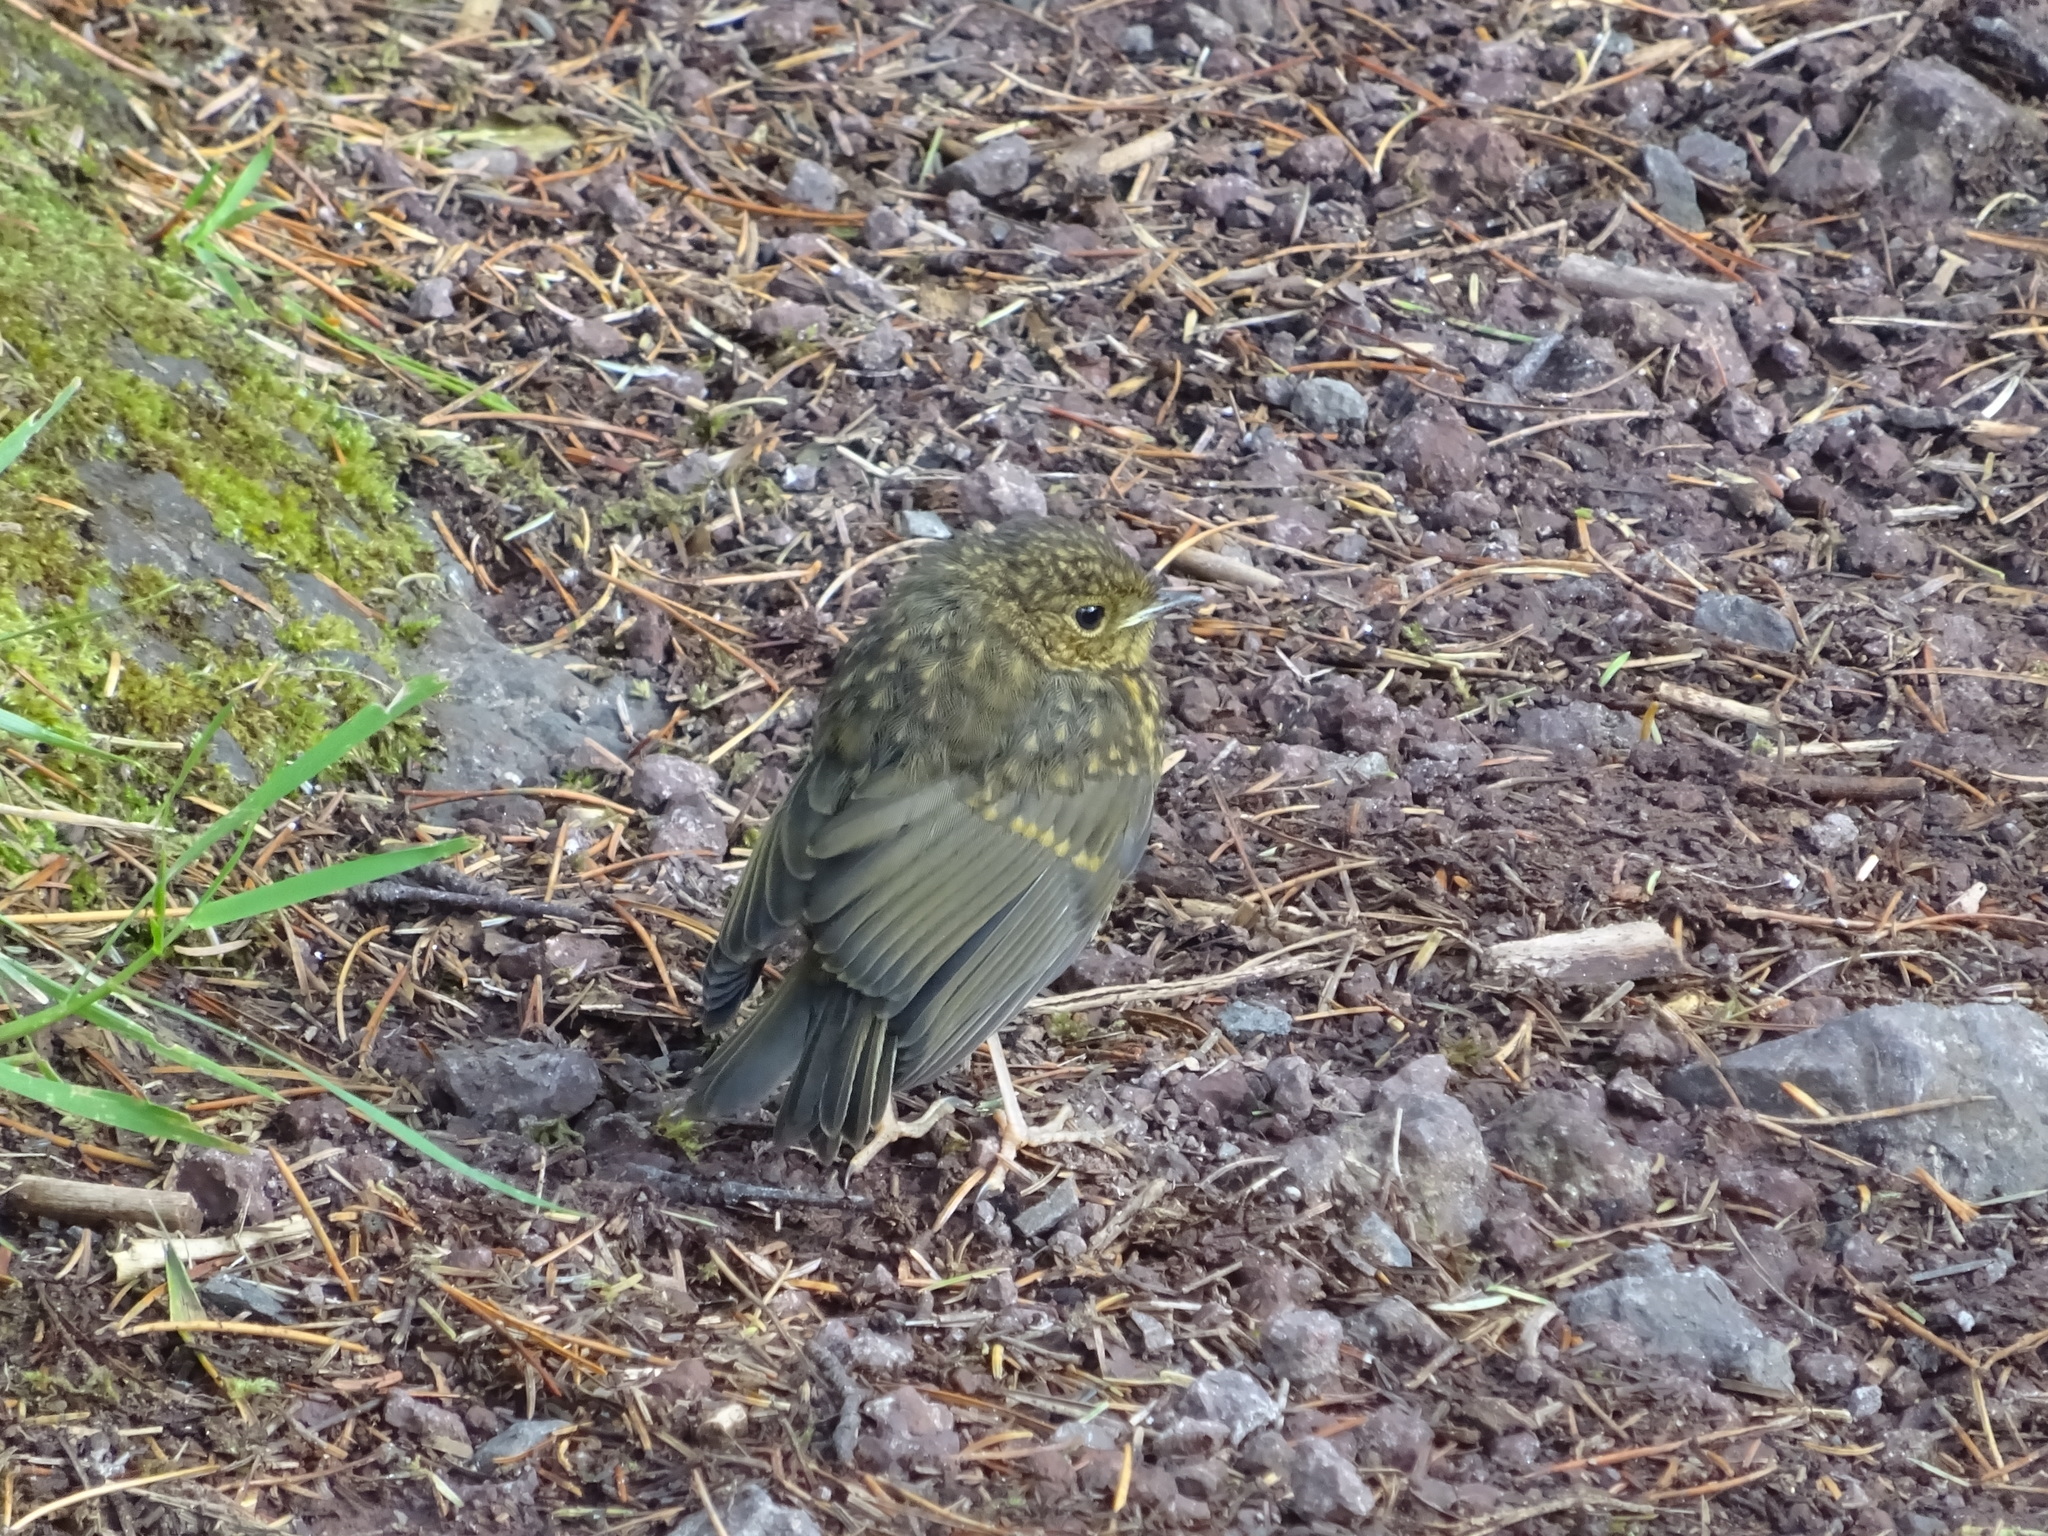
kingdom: Animalia
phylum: Chordata
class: Aves
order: Passeriformes
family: Muscicapidae
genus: Erithacus
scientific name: Erithacus rubecula
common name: European robin
